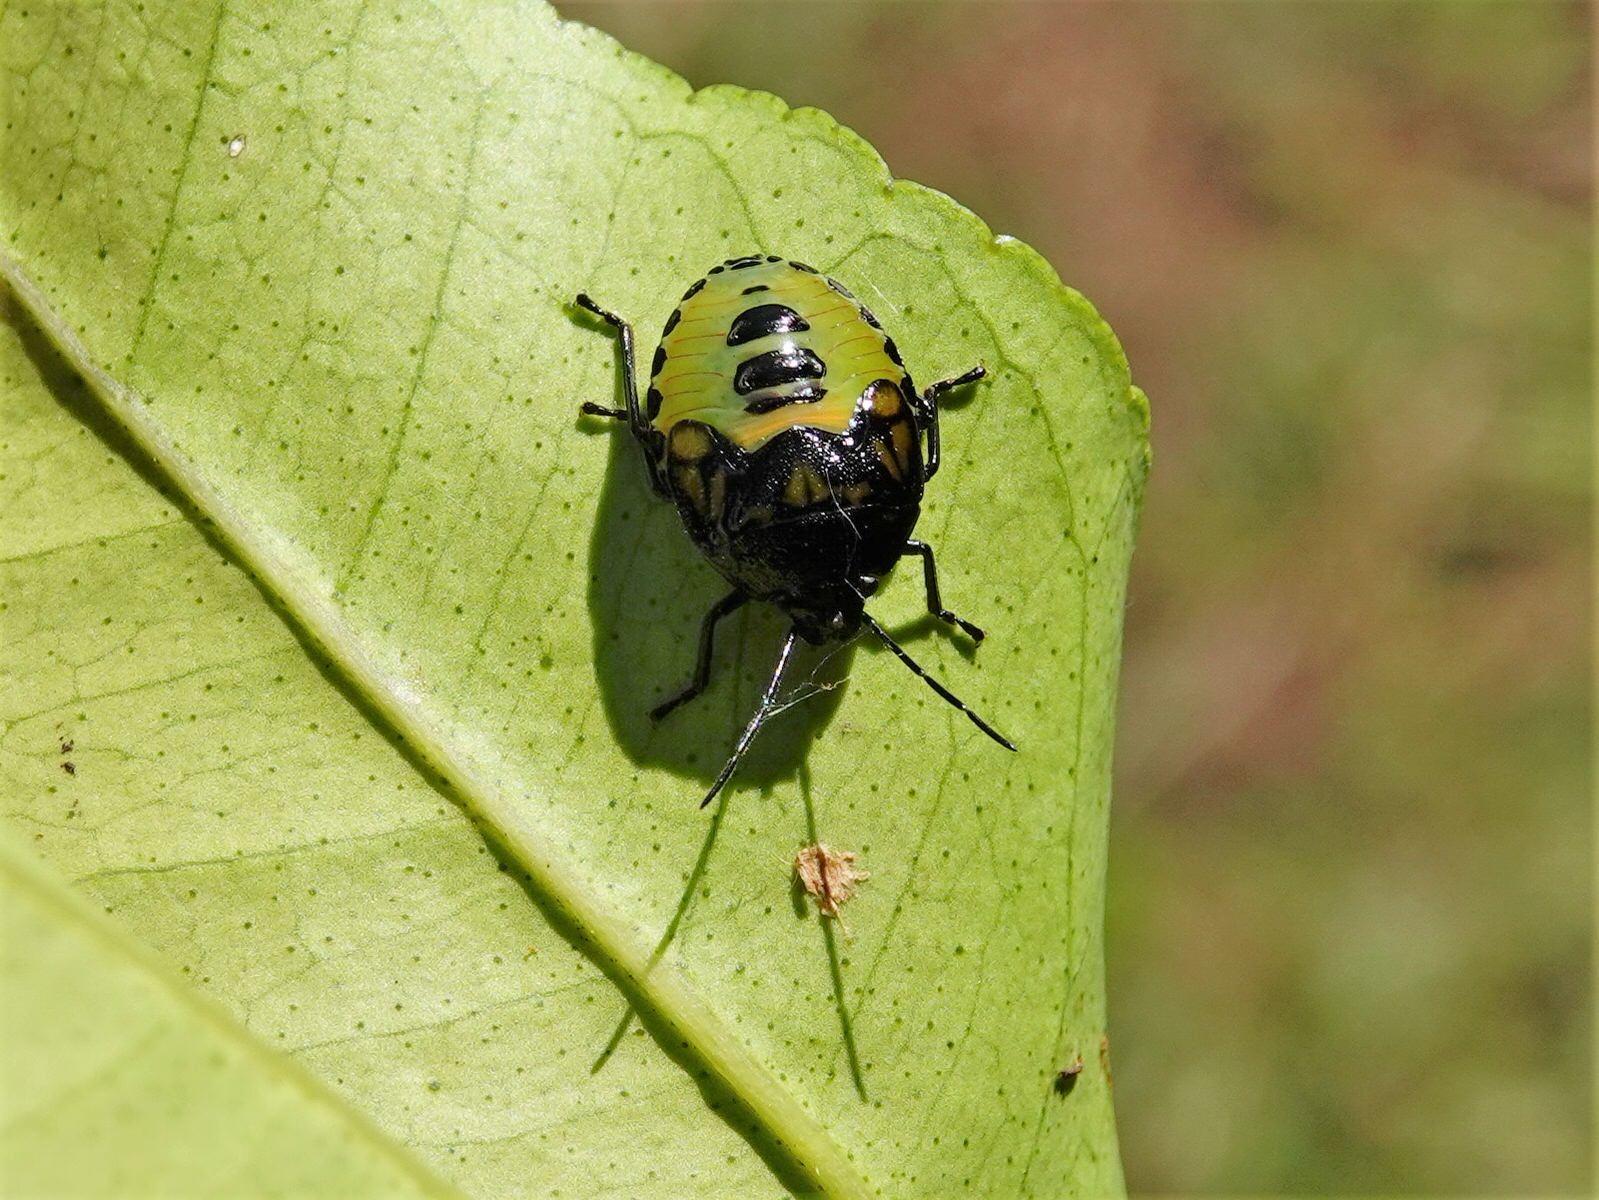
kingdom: Animalia
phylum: Arthropoda
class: Insecta
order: Hemiptera
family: Pentatomidae
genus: Glaucias
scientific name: Glaucias amyota
